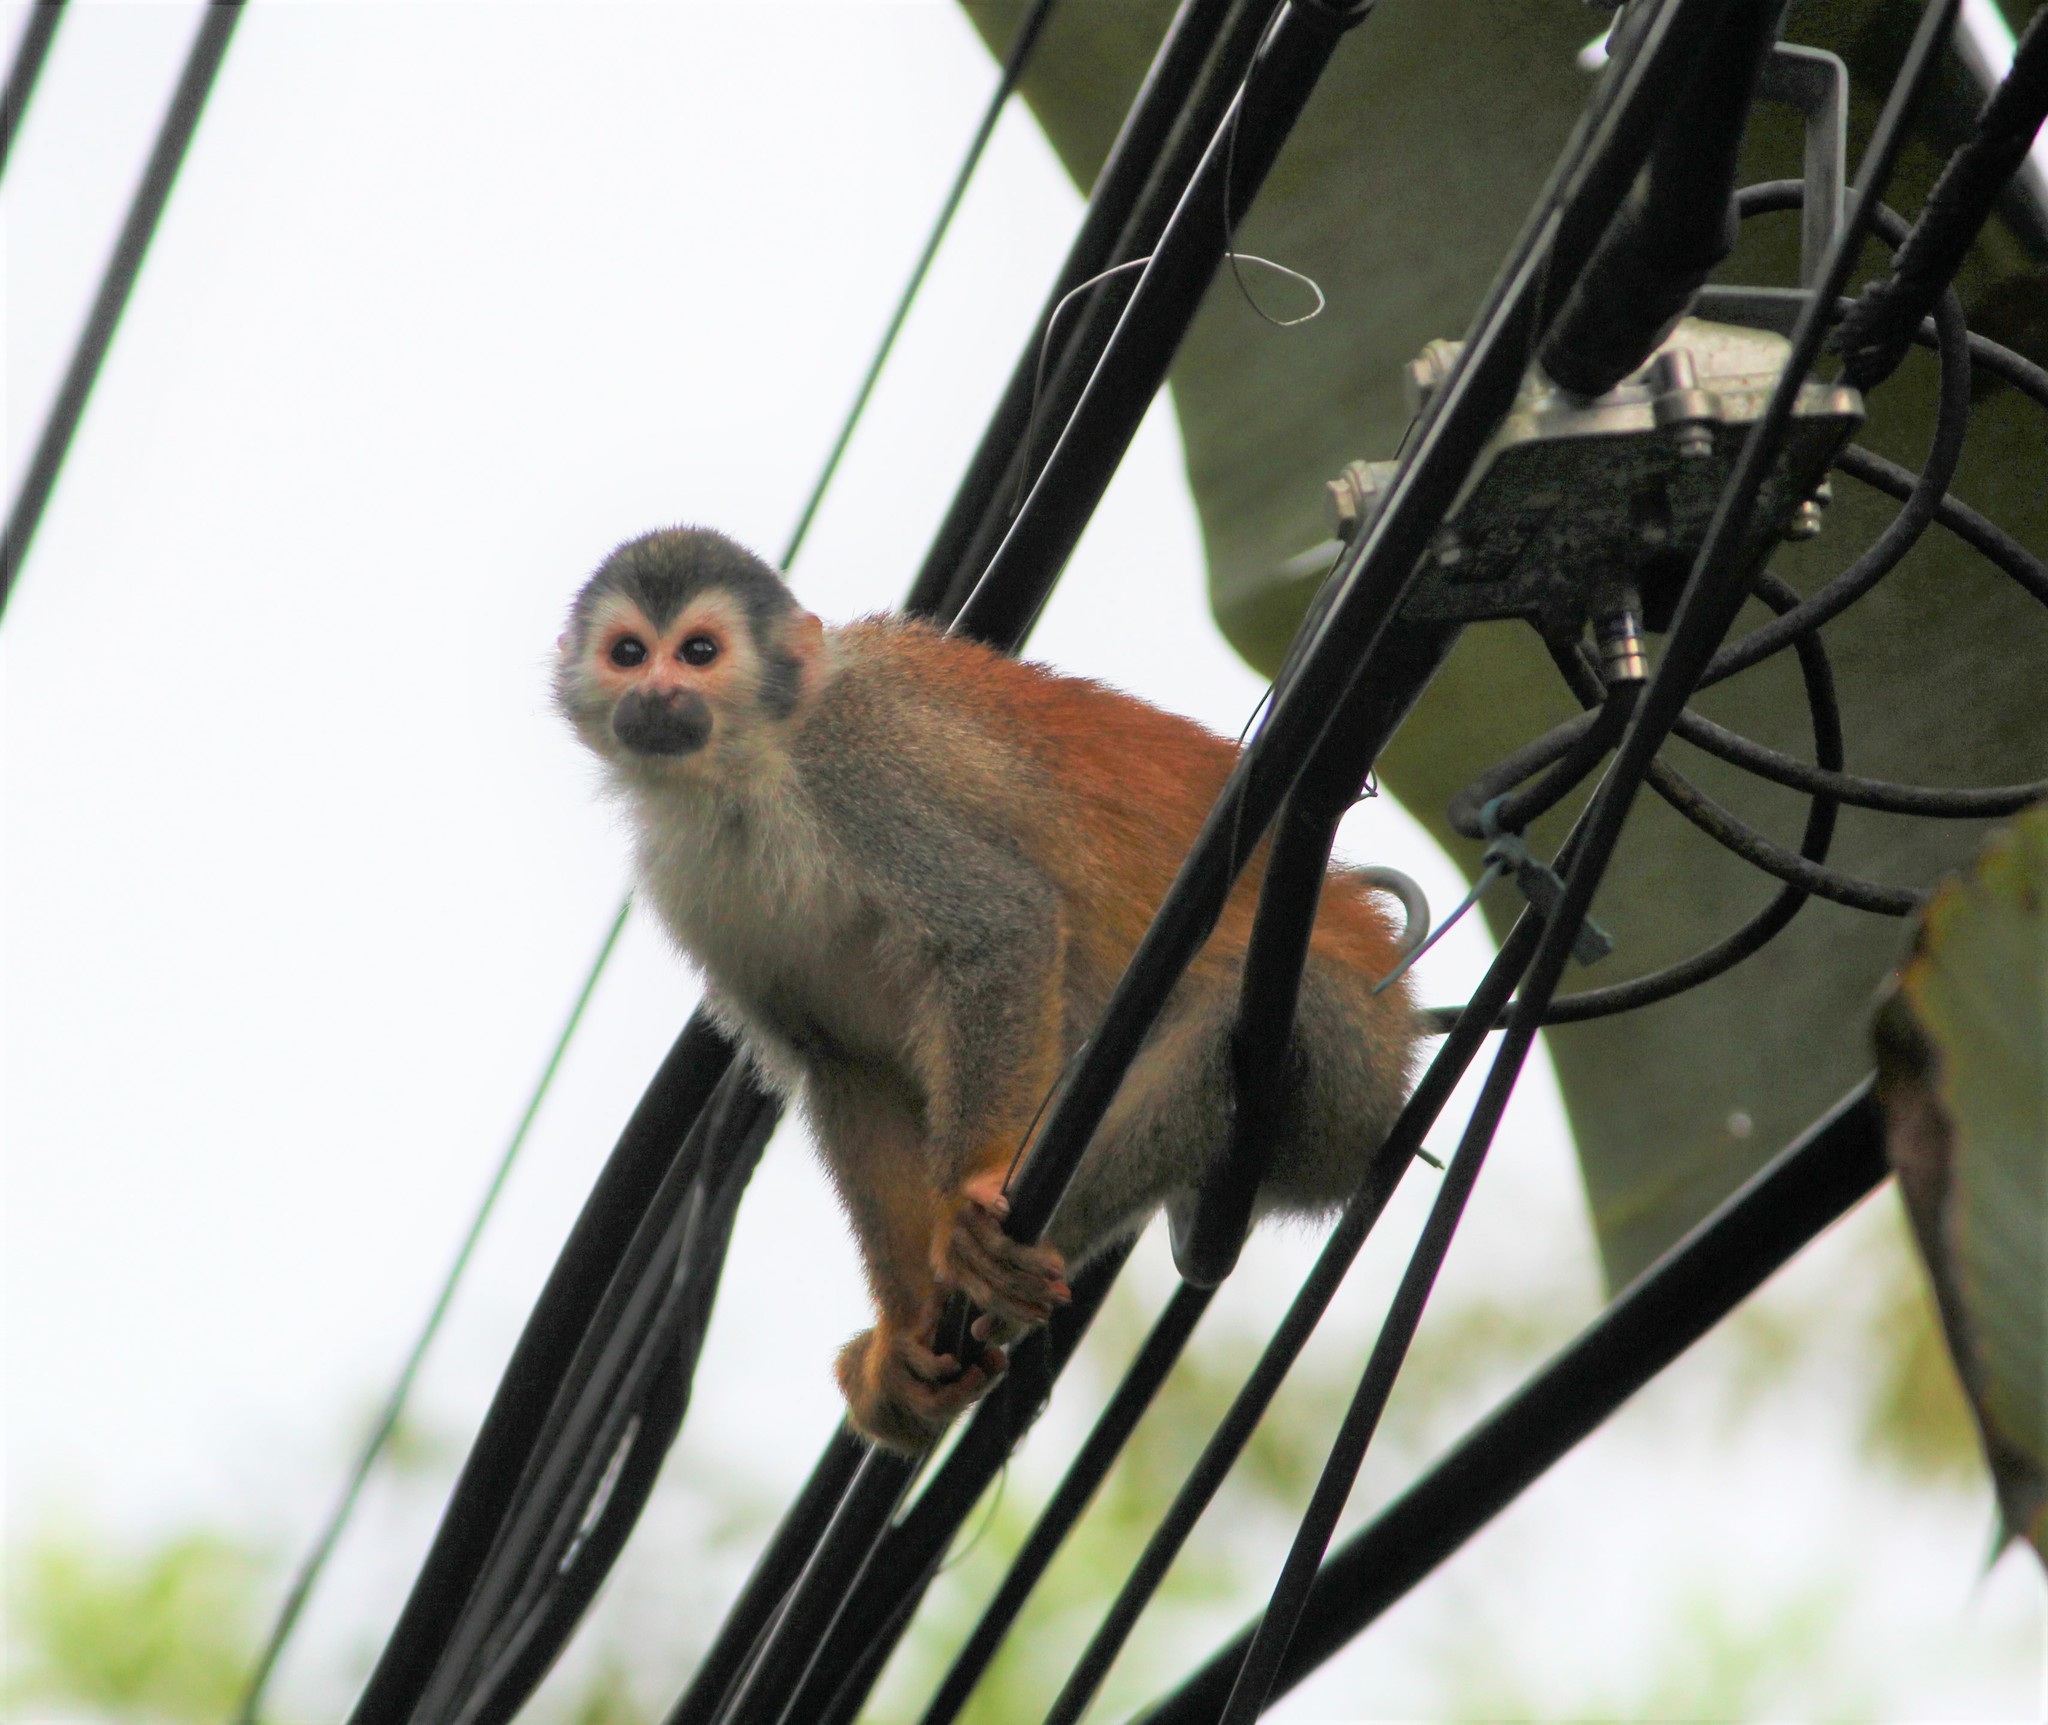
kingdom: Animalia
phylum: Chordata
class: Mammalia
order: Primates
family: Cebidae
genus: Saimiri
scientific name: Saimiri oerstedii
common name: Central american squirrel monkey
